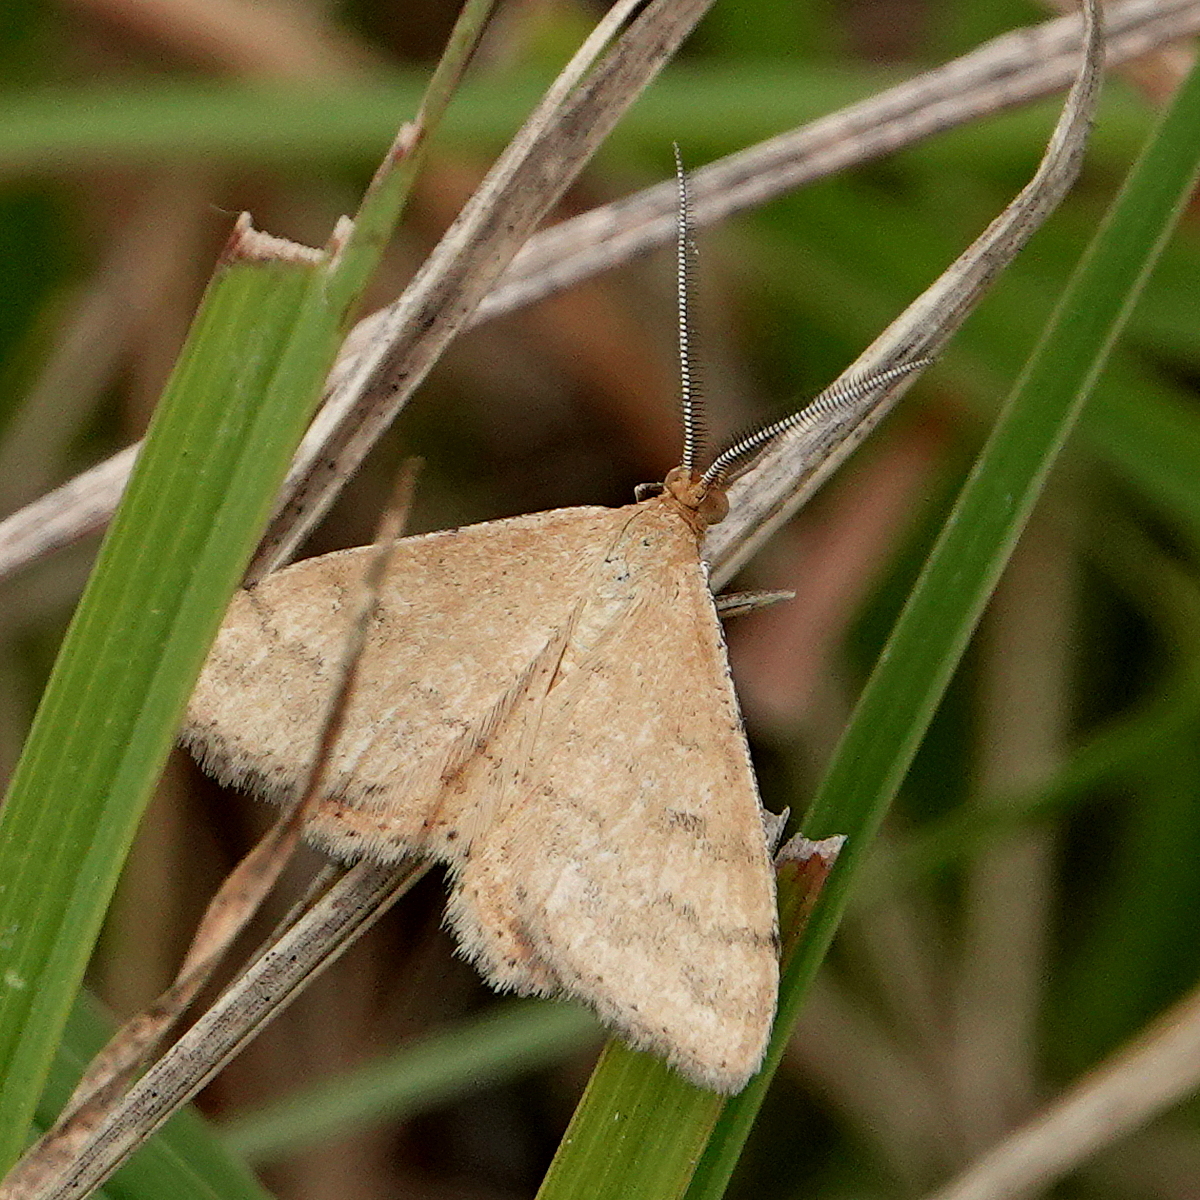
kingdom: Animalia
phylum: Arthropoda
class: Insecta
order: Lepidoptera
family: Geometridae
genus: Scopula
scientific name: Scopula rubraria
